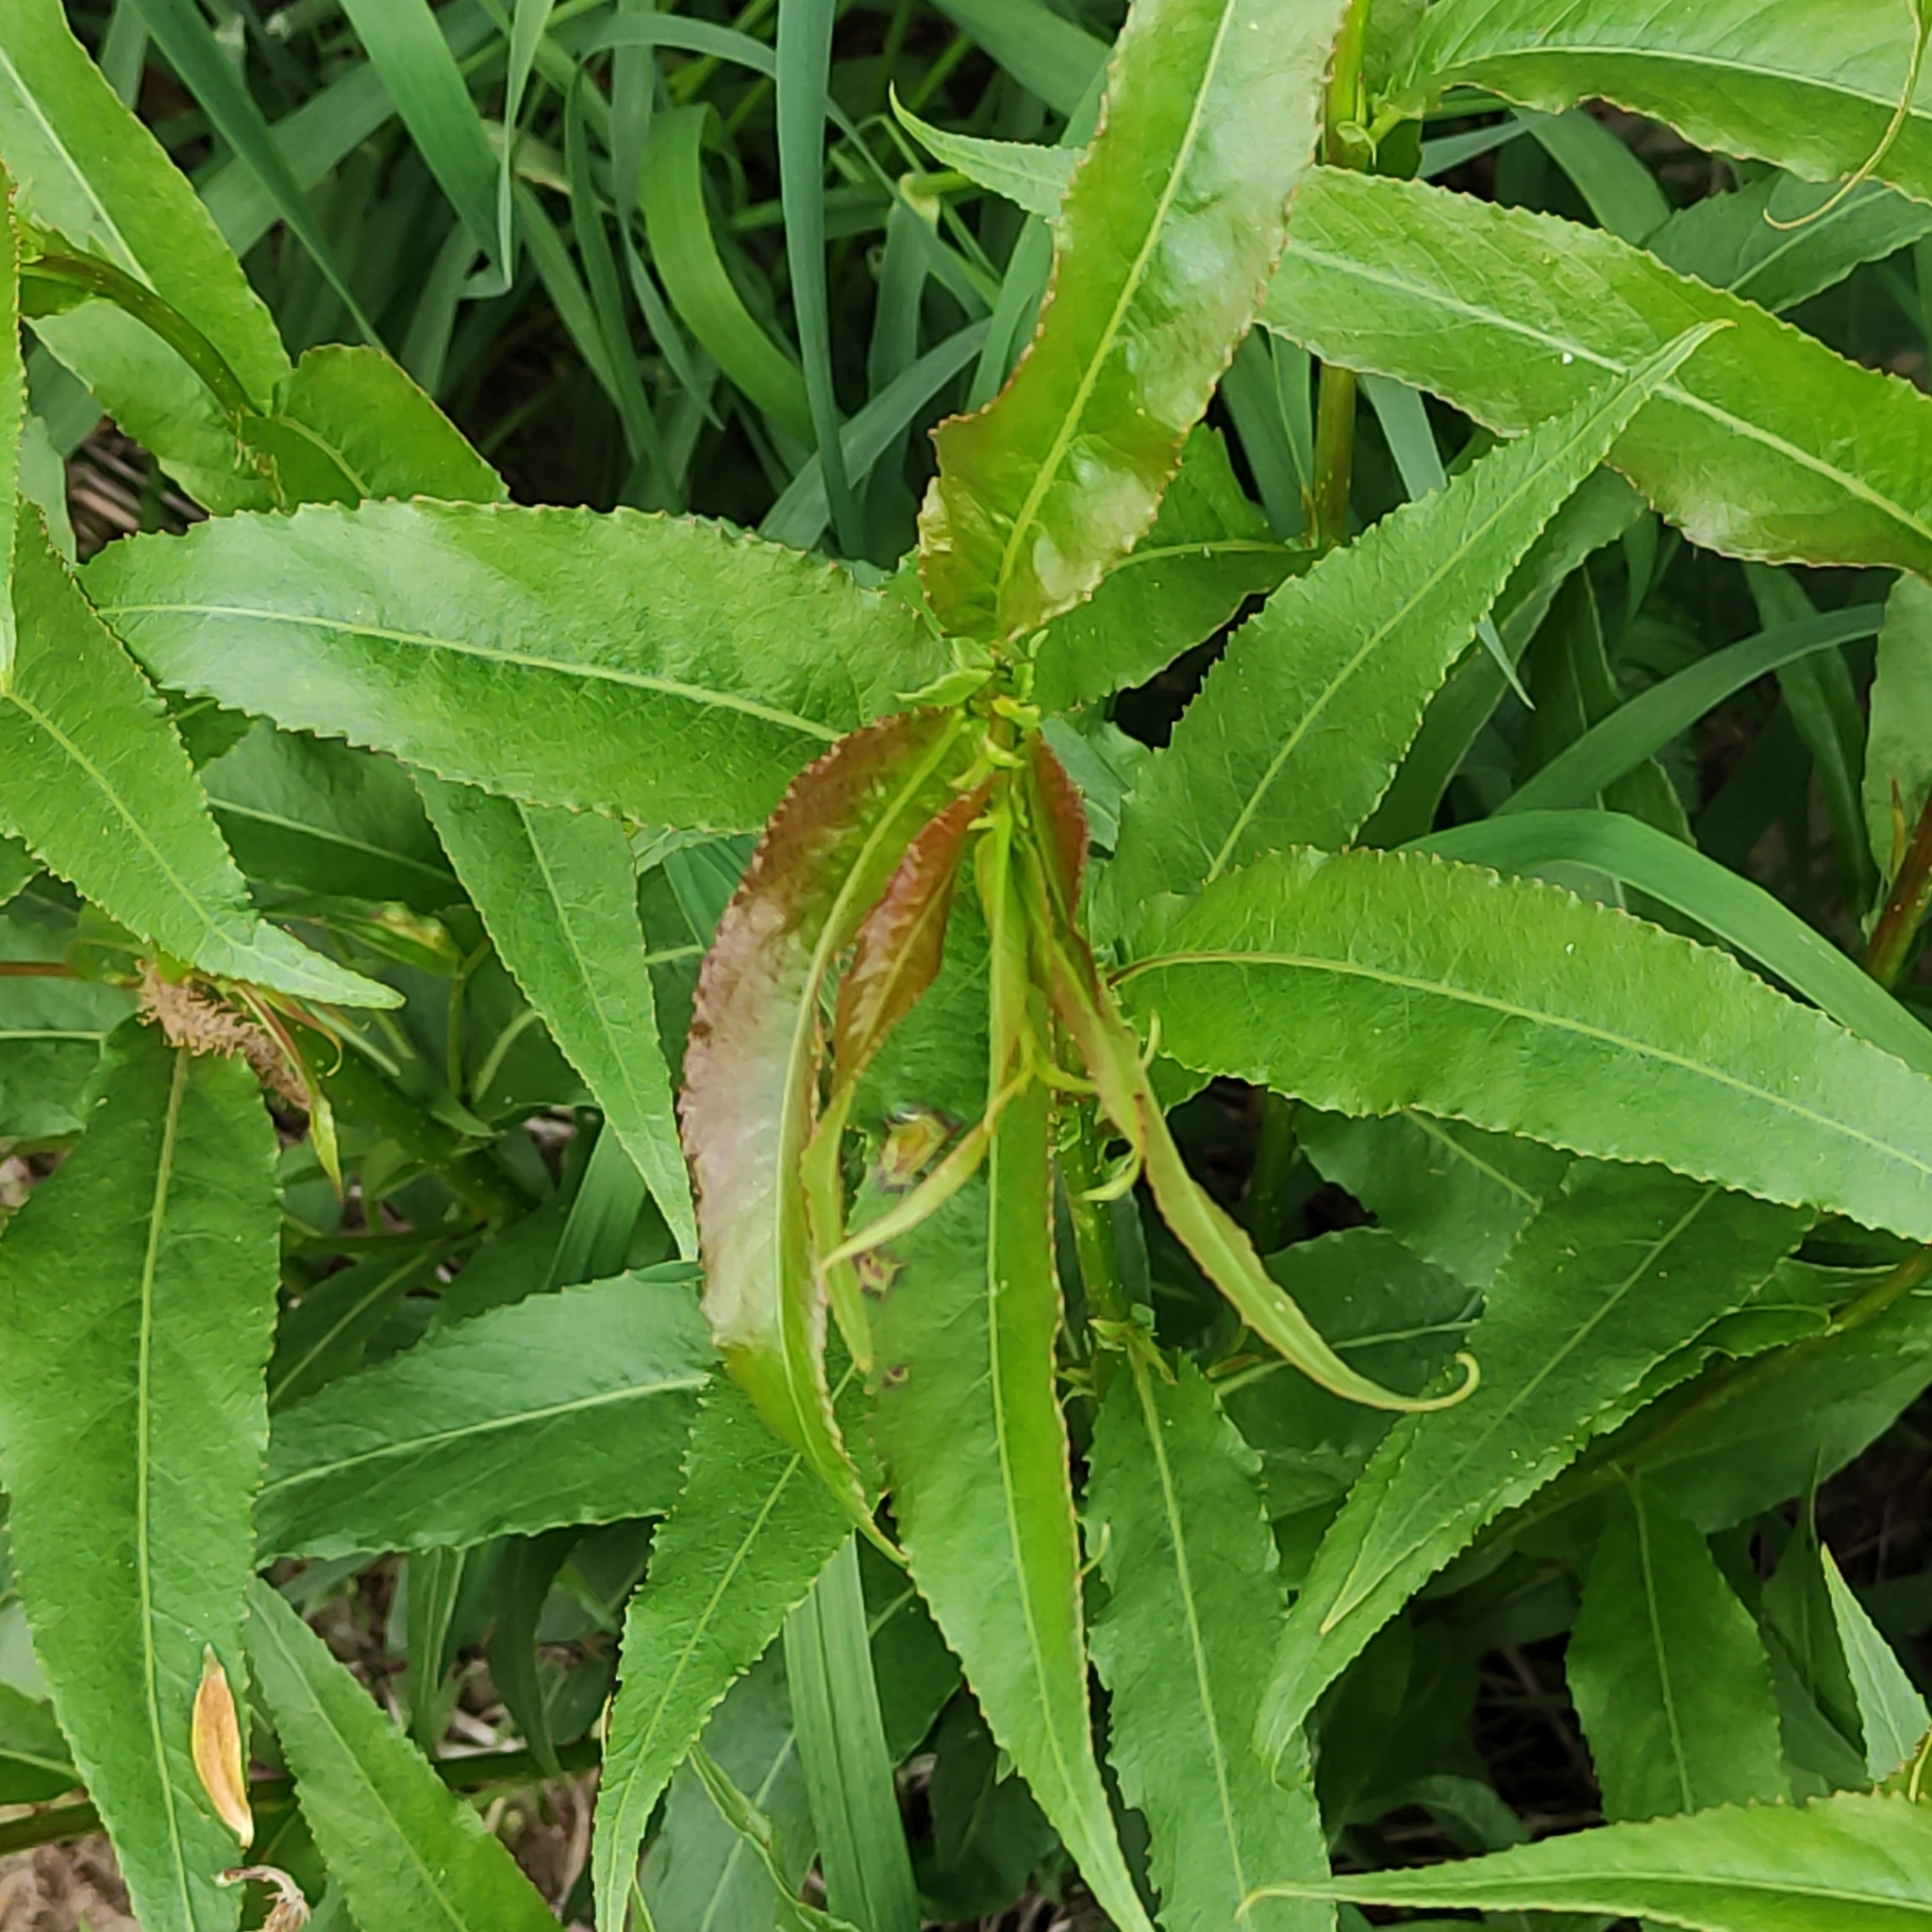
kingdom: Plantae
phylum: Tracheophyta
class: Magnoliopsida
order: Malpighiales
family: Salicaceae
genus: Salix
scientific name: Salix fragilis
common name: Crack willow
